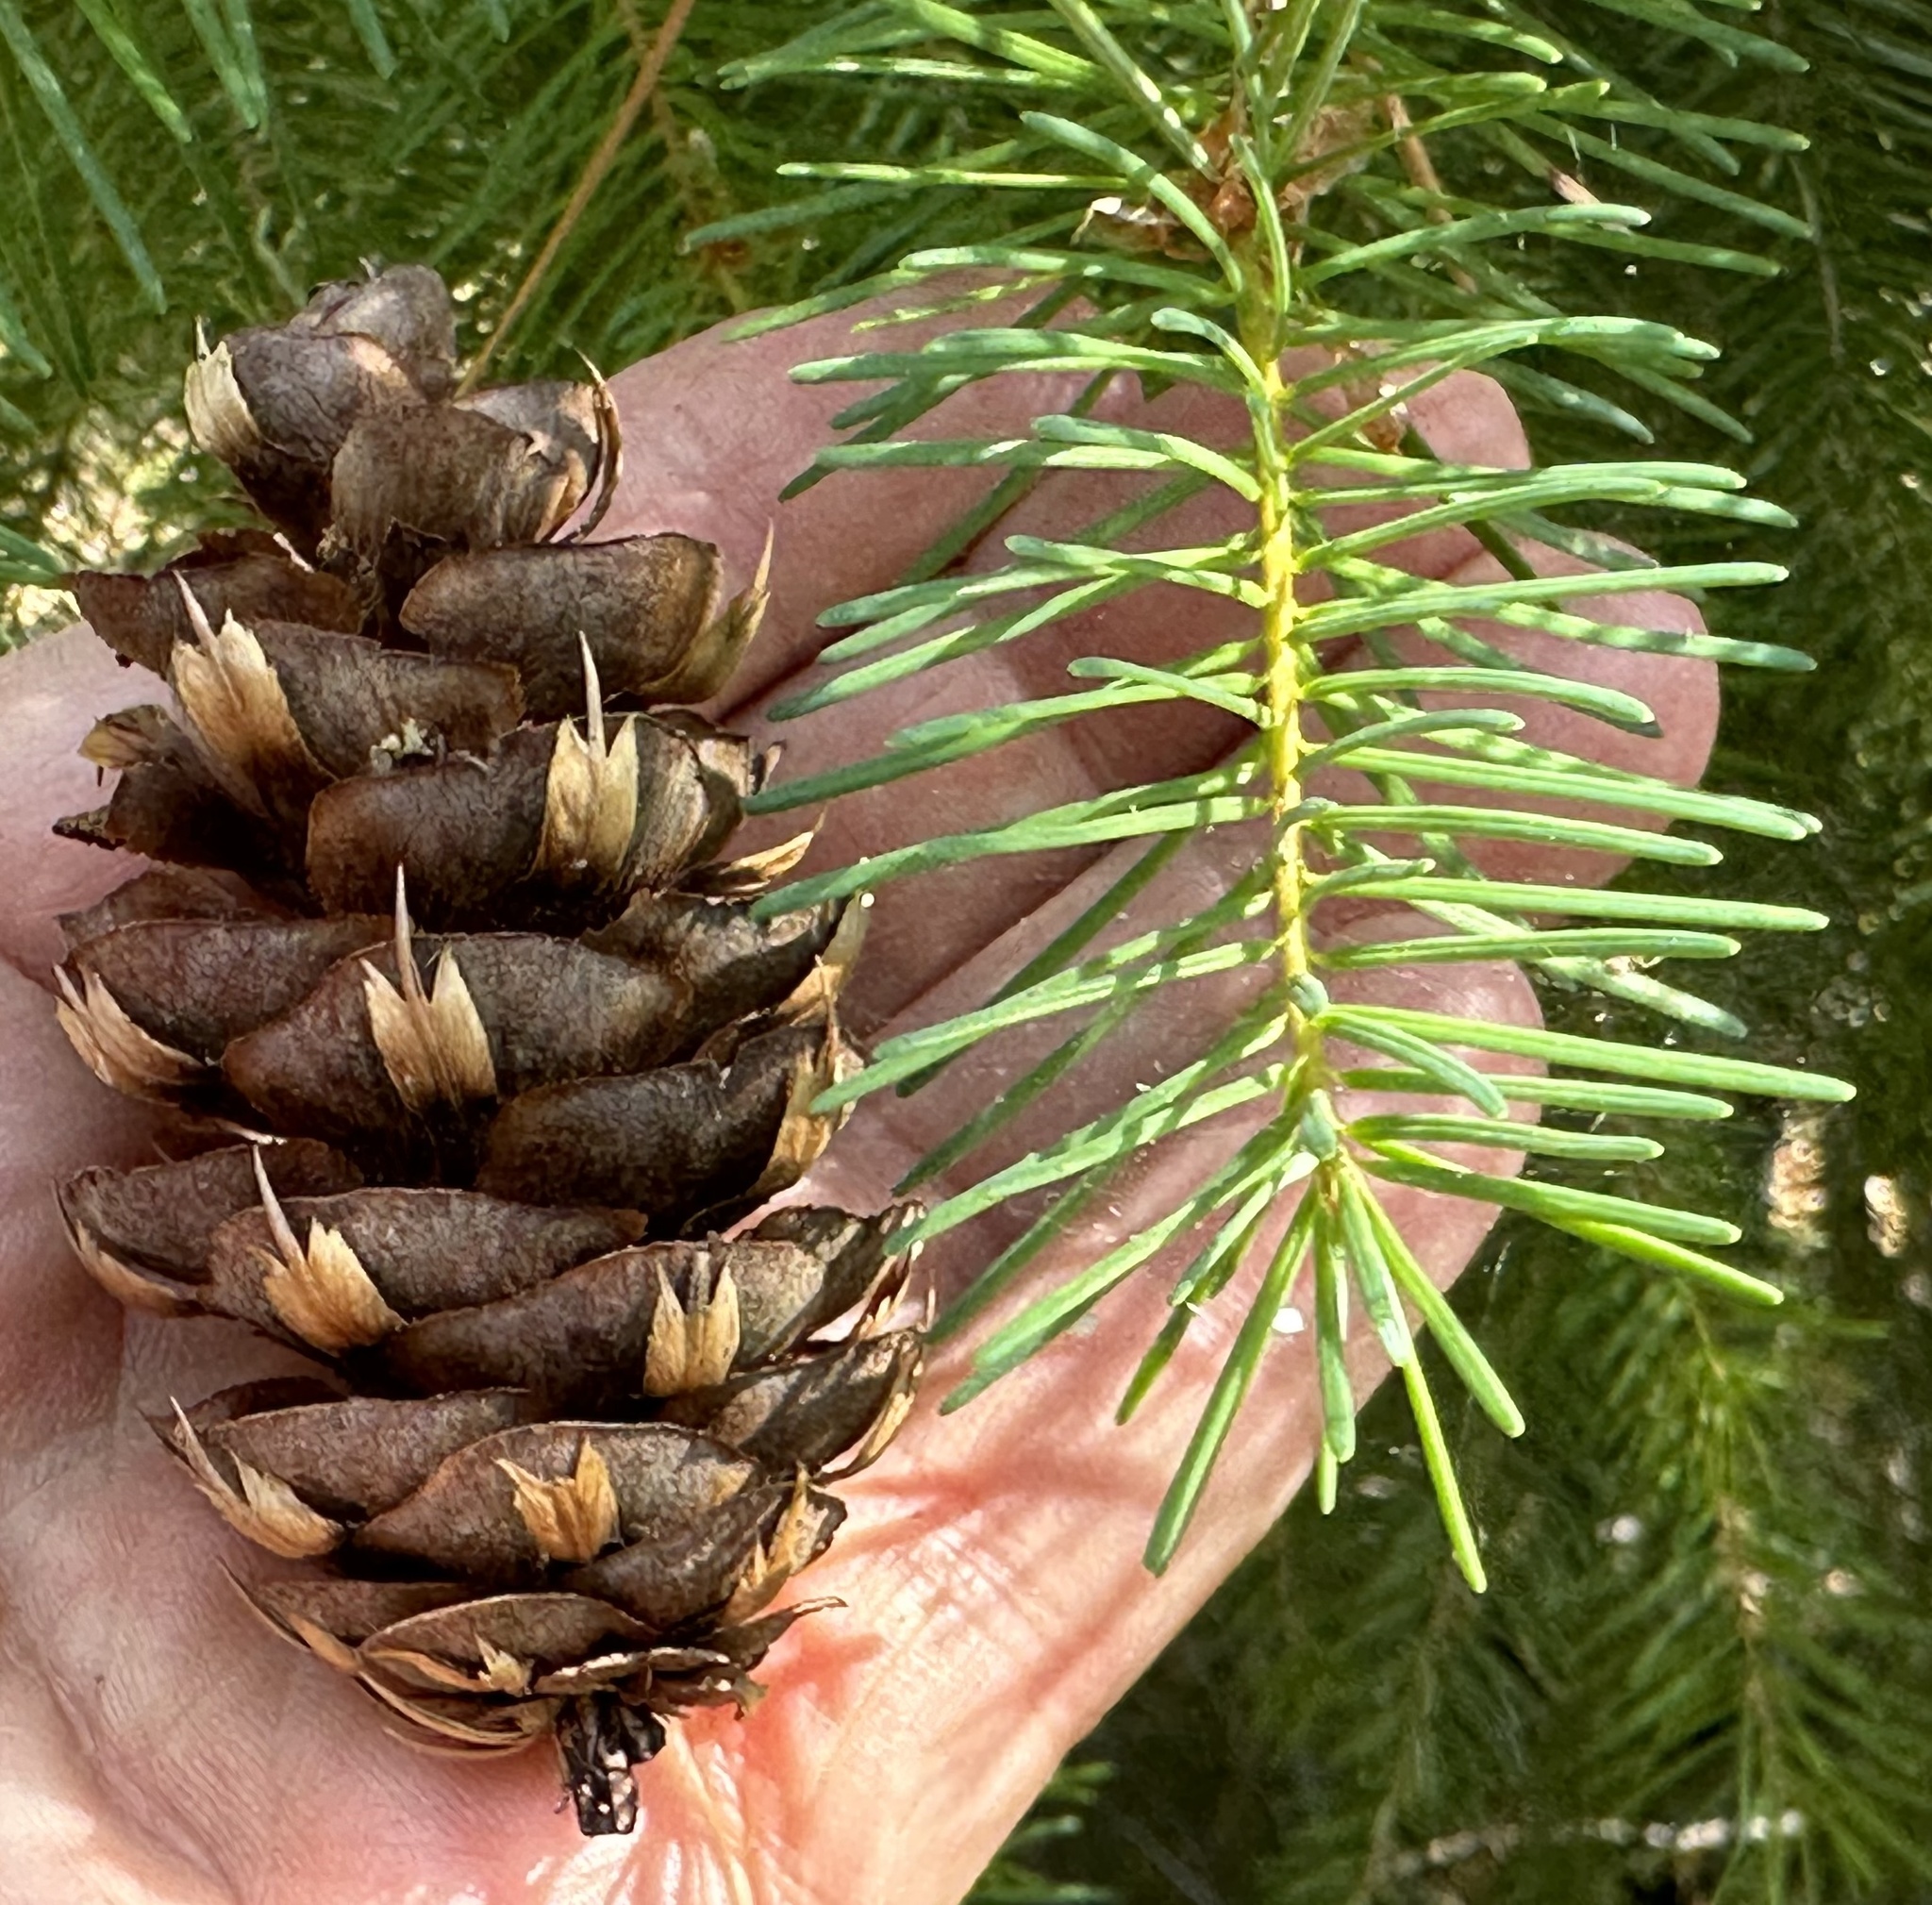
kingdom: Plantae
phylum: Tracheophyta
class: Pinopsida
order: Pinales
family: Pinaceae
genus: Pseudotsuga
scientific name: Pseudotsuga menziesii
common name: Douglas fir
